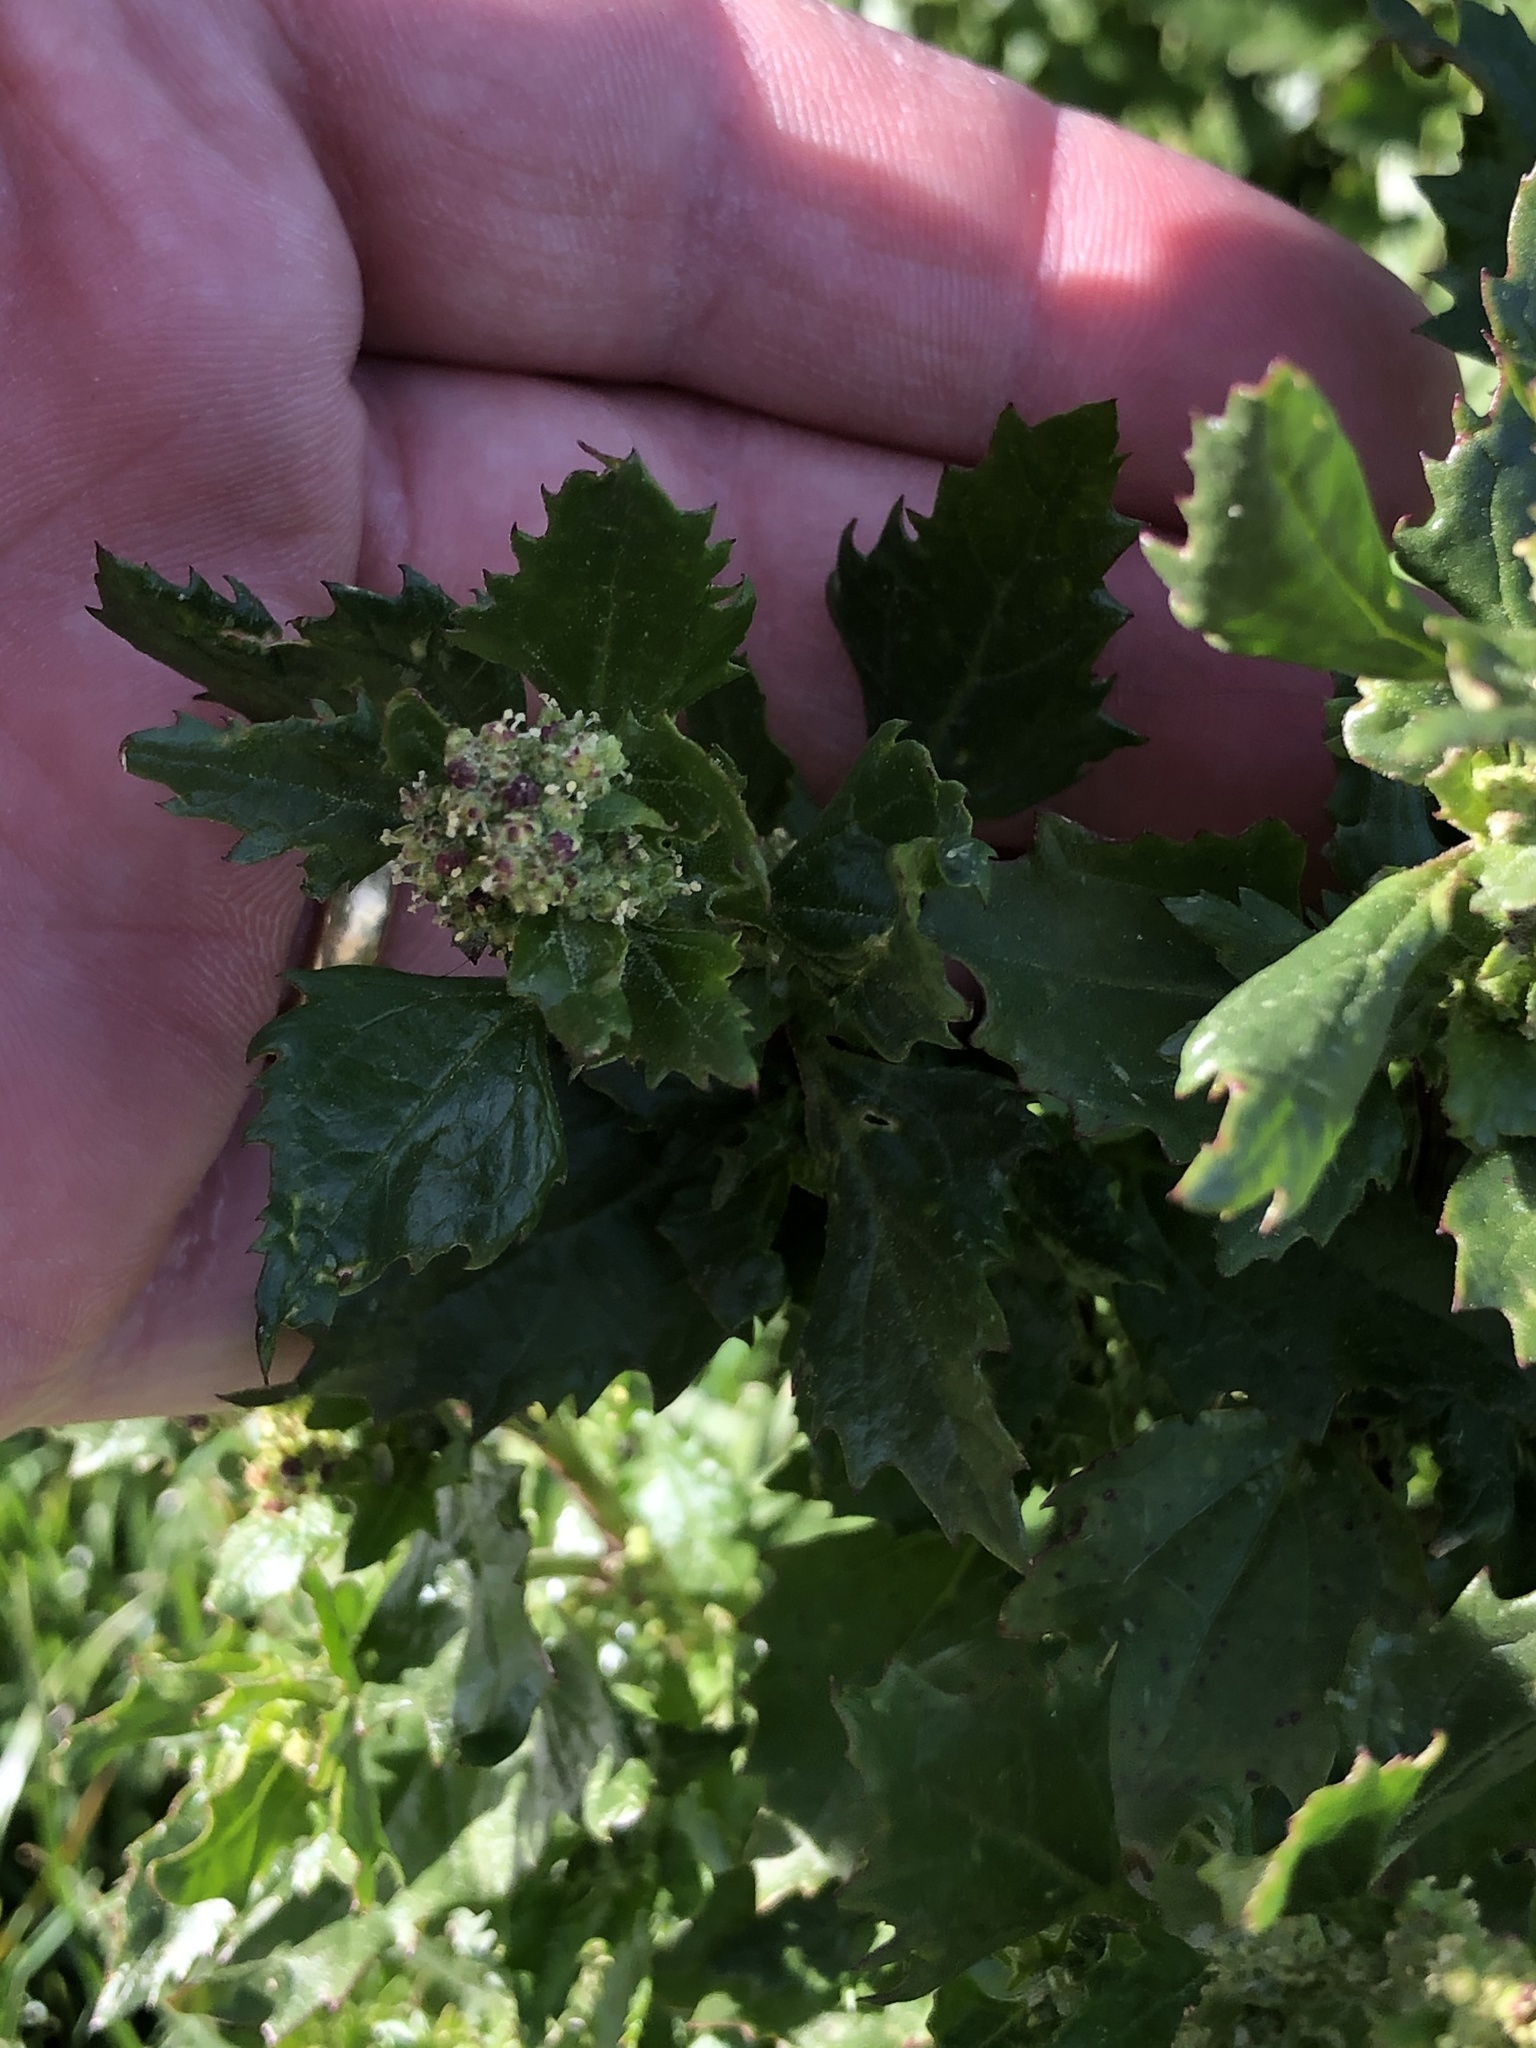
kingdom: Plantae
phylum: Tracheophyta
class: Magnoliopsida
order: Caryophyllales
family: Amaranthaceae
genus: Chenopodiastrum
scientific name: Chenopodiastrum murale
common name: Sowbane
